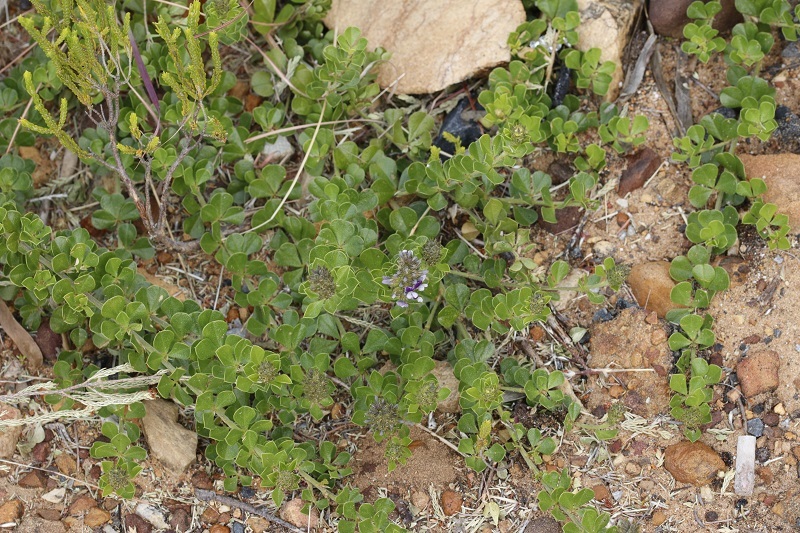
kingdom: Plantae
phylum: Tracheophyta
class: Magnoliopsida
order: Fabales
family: Fabaceae
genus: Psoralea
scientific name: Psoralea bracteolata
